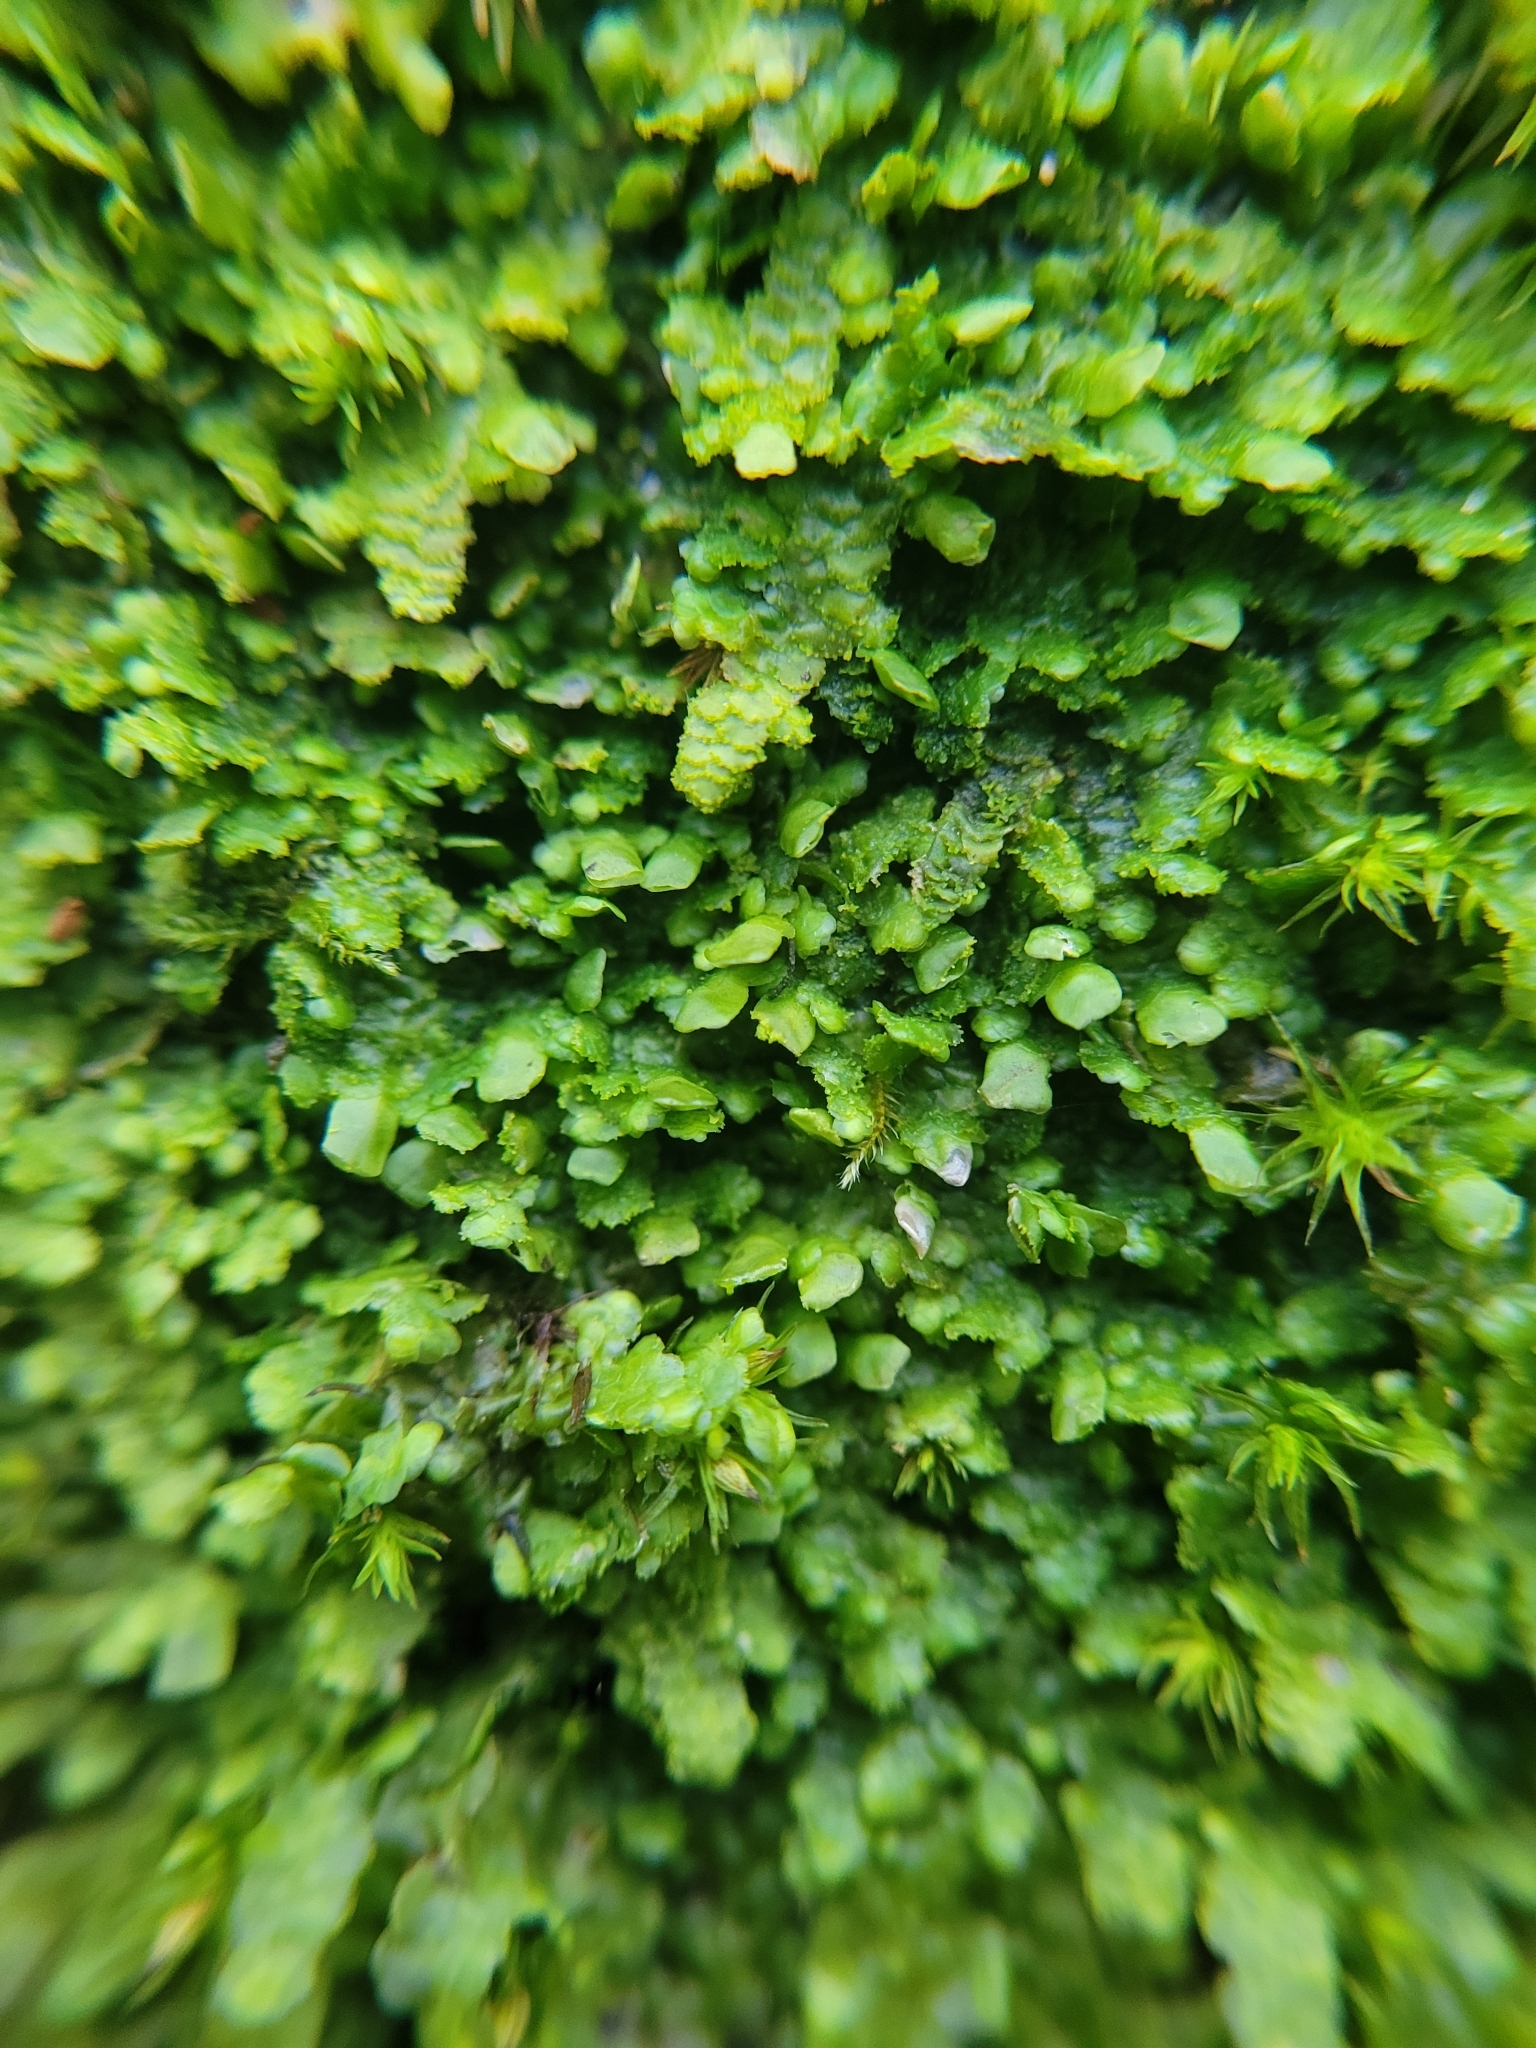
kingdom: Plantae
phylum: Marchantiophyta
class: Jungermanniopsida
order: Porellales
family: Radulaceae
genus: Radula
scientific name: Radula complanata
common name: Flat-leaved scalewort
